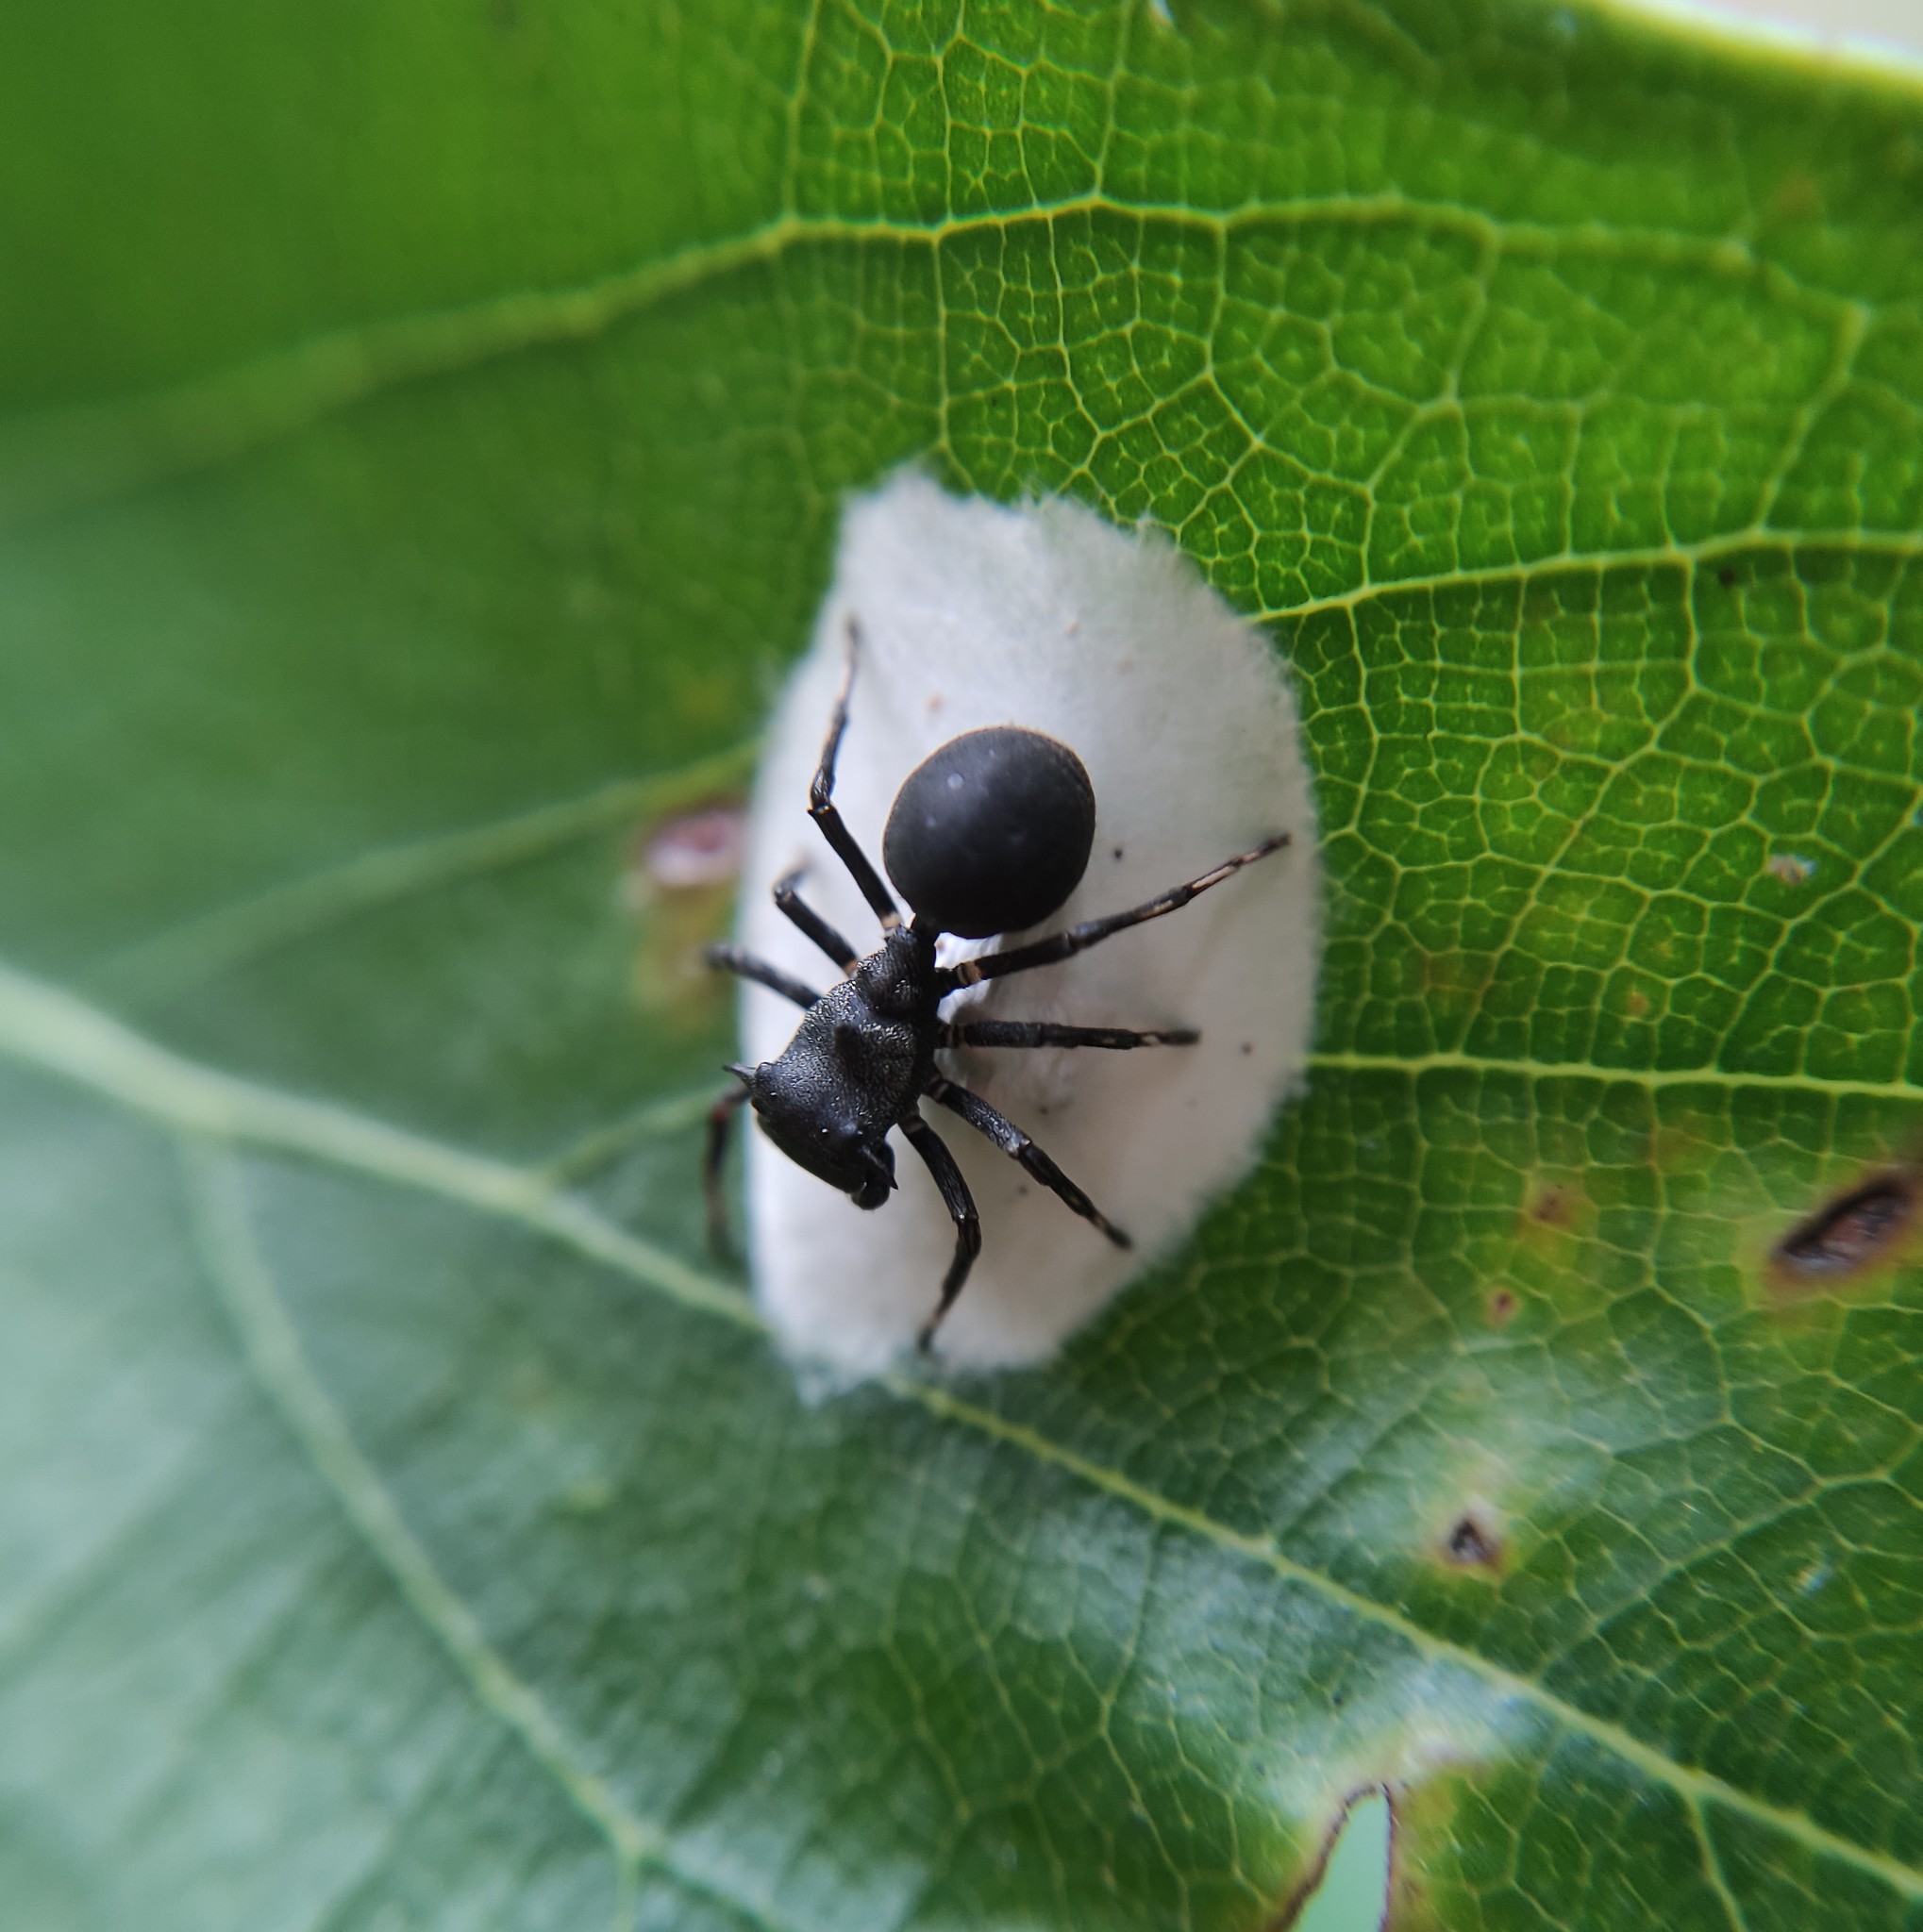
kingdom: Animalia
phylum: Arthropoda
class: Arachnida
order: Araneae
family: Thomisidae
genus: Aphantochilus
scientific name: Aphantochilus inermipes
